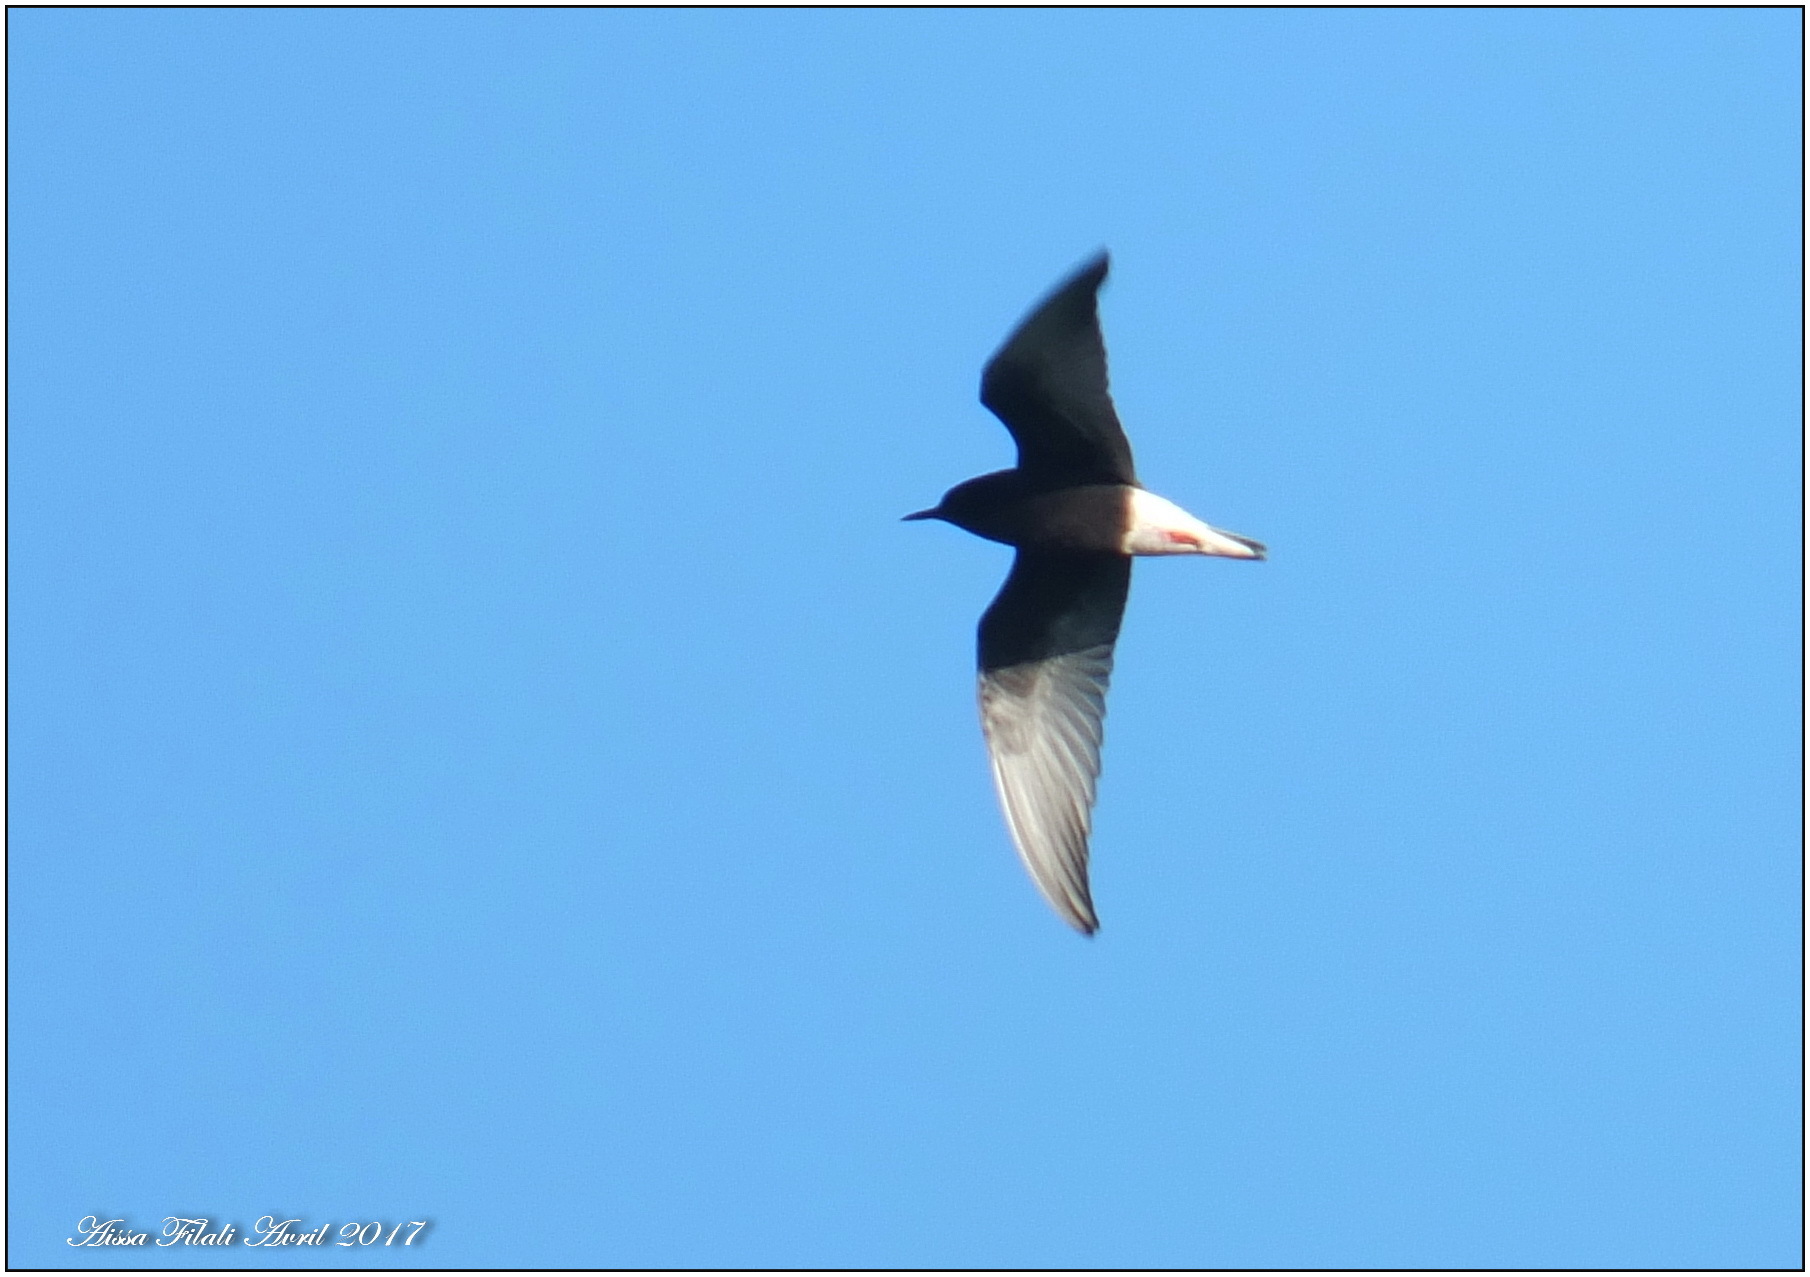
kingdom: Animalia
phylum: Chordata
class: Aves
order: Charadriiformes
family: Laridae
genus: Chlidonias
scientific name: Chlidonias leucopterus
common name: White-winged tern
